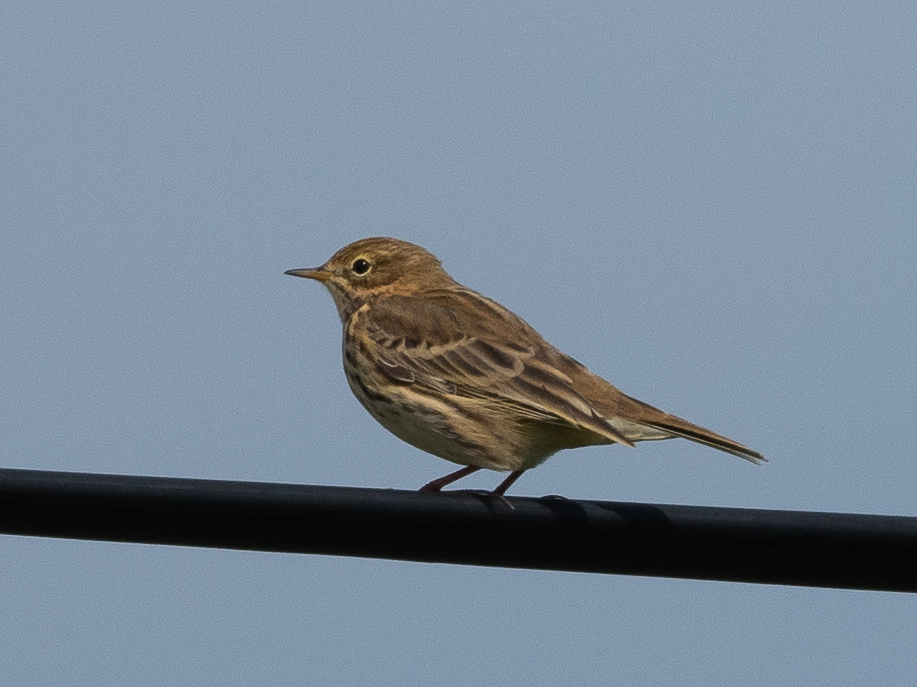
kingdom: Animalia
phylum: Chordata
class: Aves
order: Passeriformes
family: Motacillidae
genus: Anthus
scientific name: Anthus pratensis
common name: Meadow pipit
